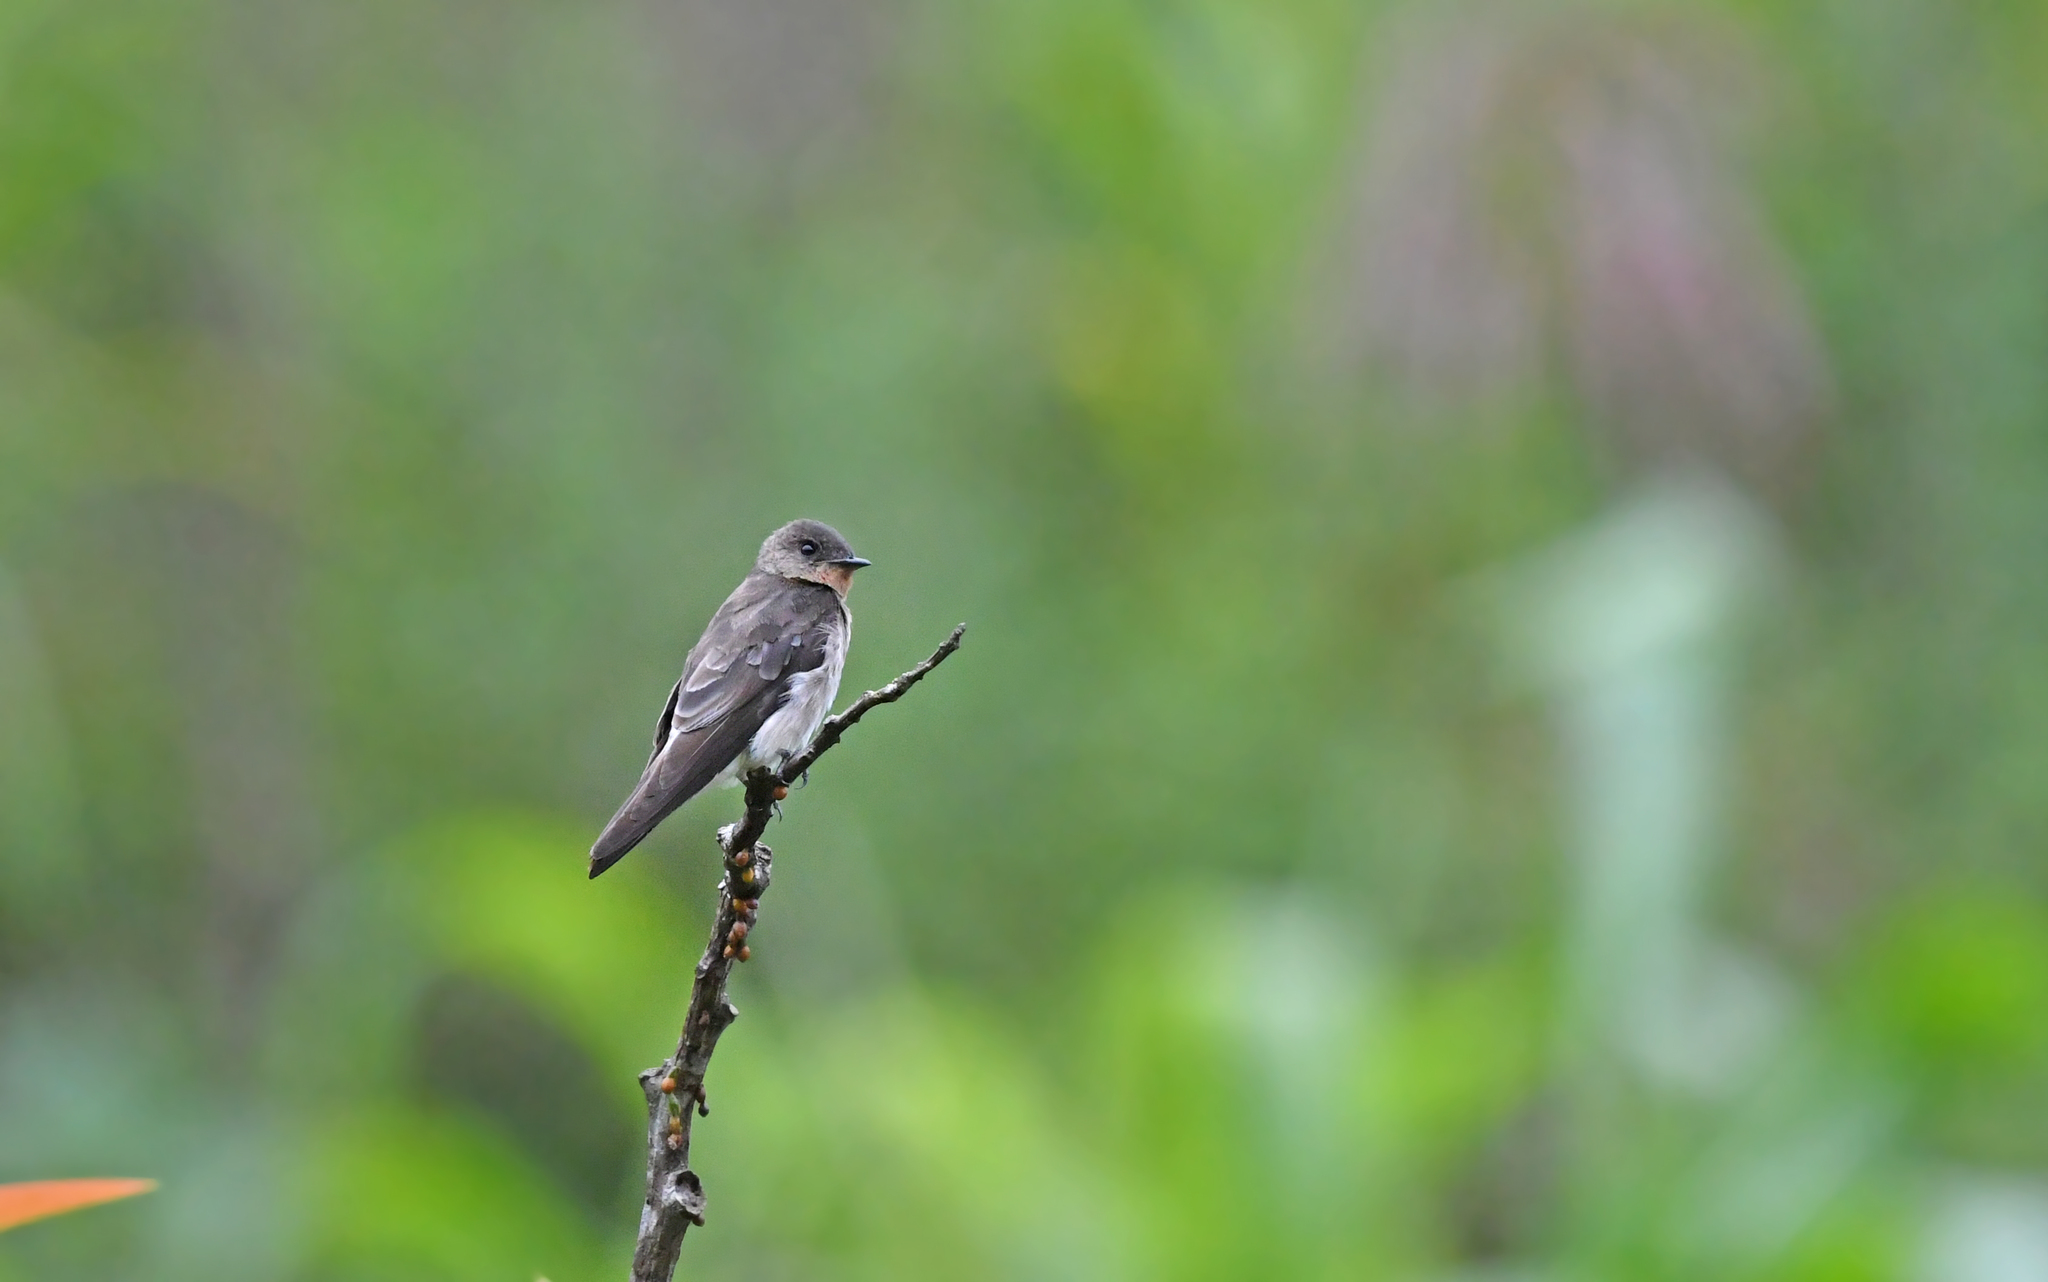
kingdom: Animalia
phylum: Chordata
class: Aves
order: Passeriformes
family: Hirundinidae
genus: Stelgidopteryx
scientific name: Stelgidopteryx ruficollis
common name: Southern rough-winged swallow
